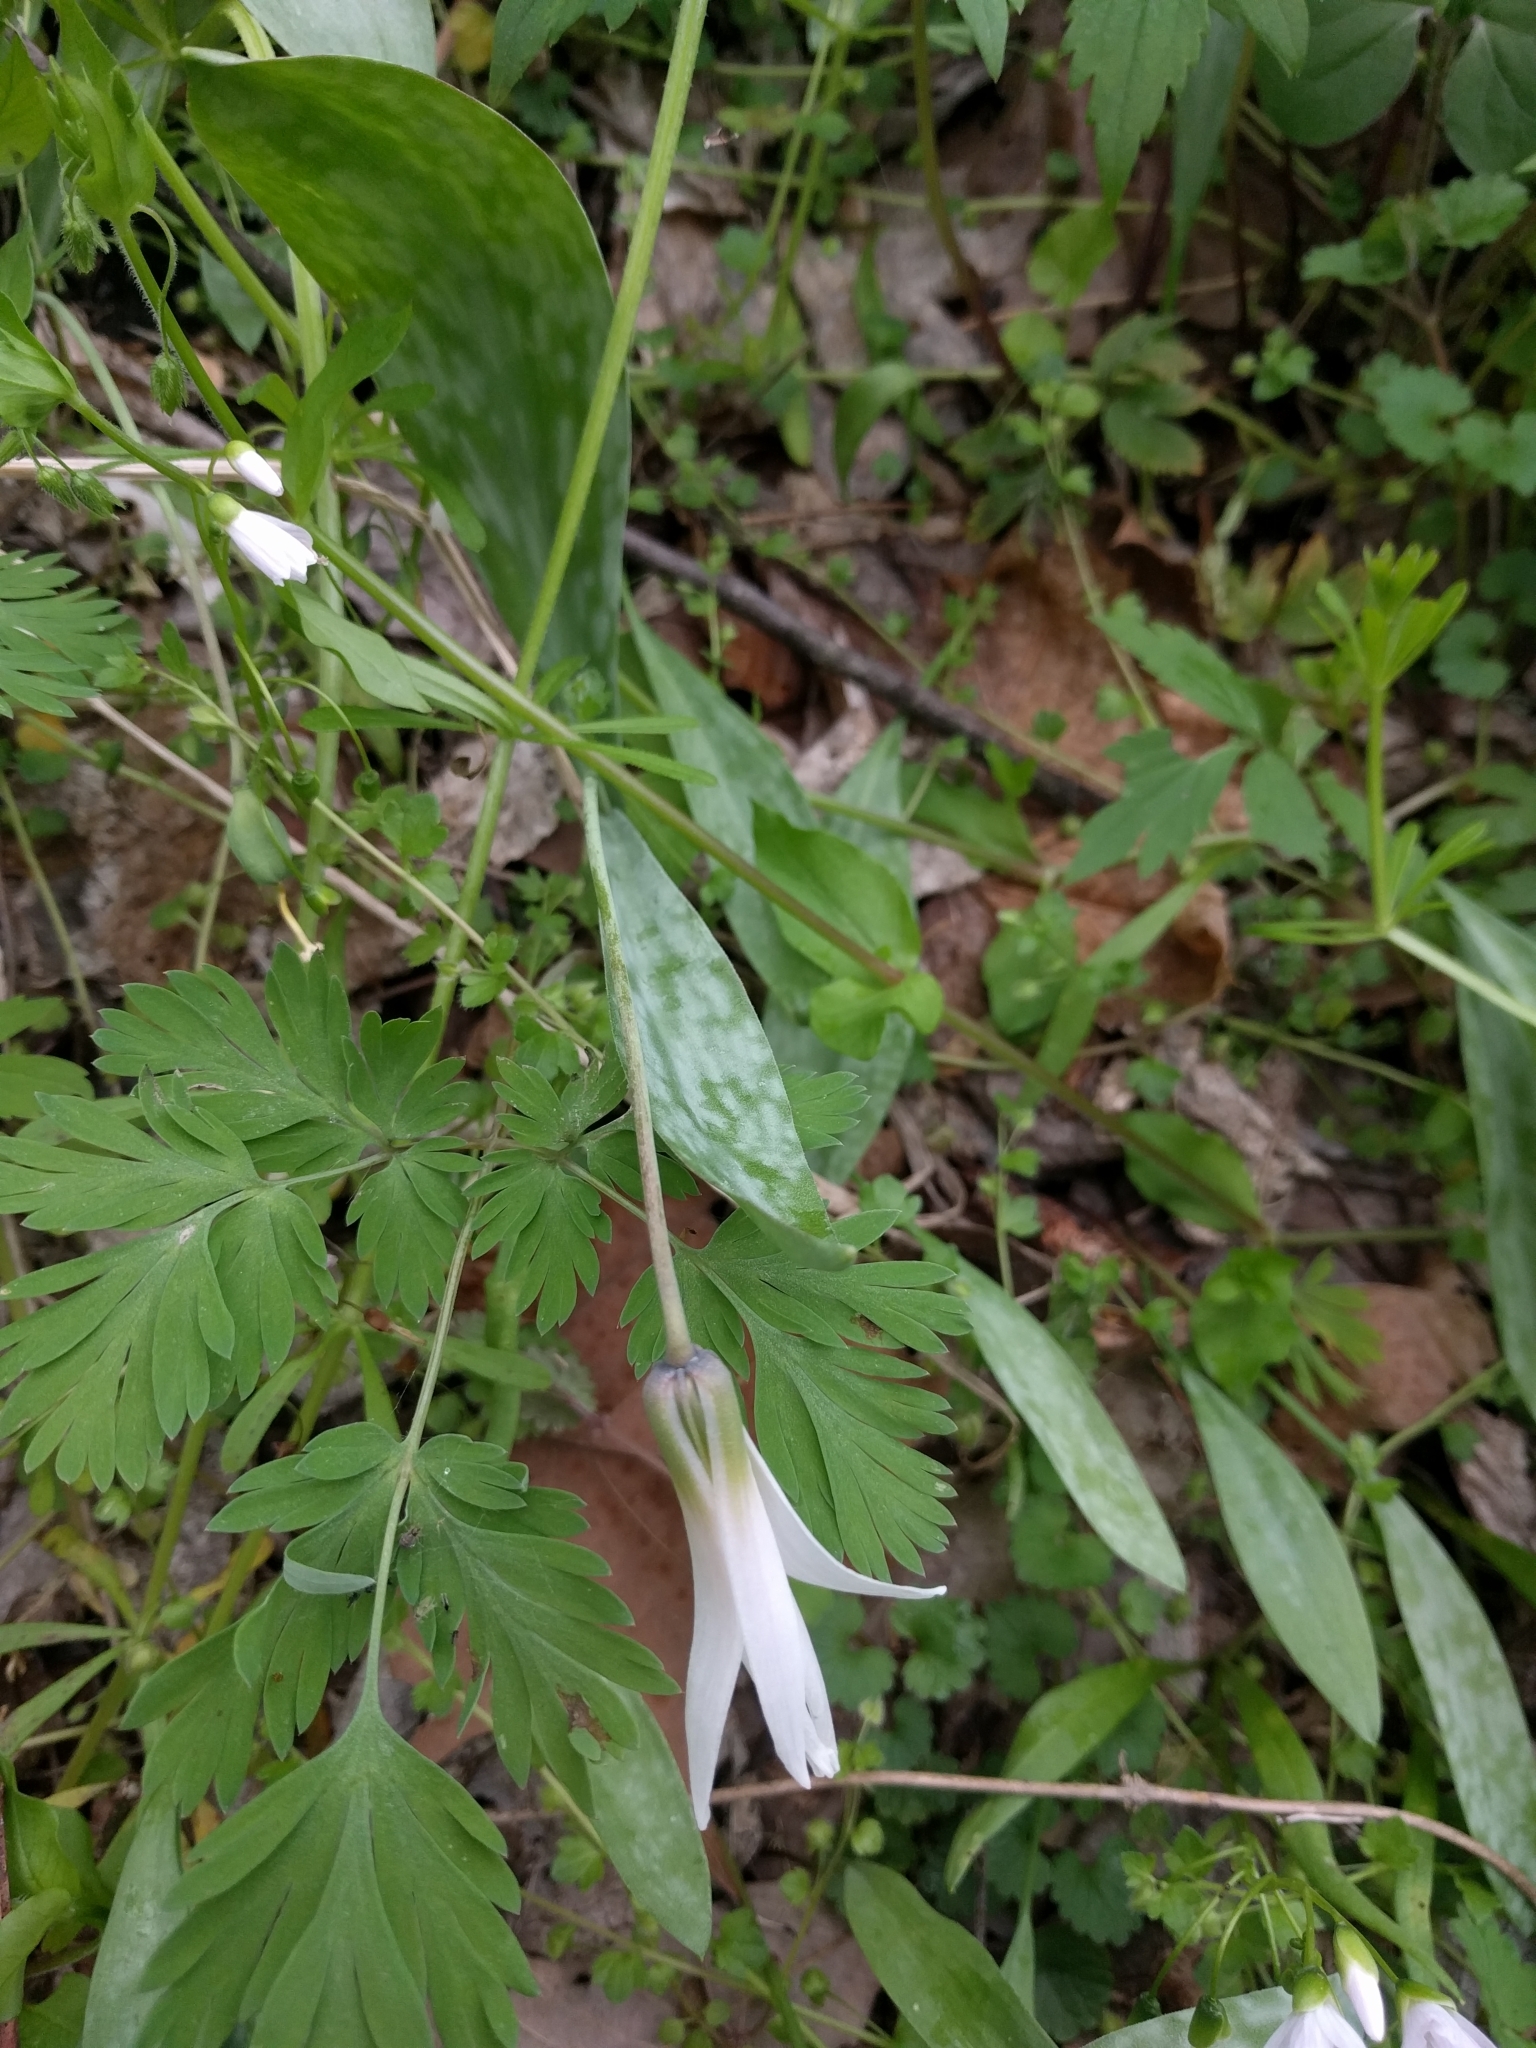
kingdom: Plantae
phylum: Tracheophyta
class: Liliopsida
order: Liliales
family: Liliaceae
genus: Erythronium
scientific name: Erythronium albidum
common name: White trout-lily
